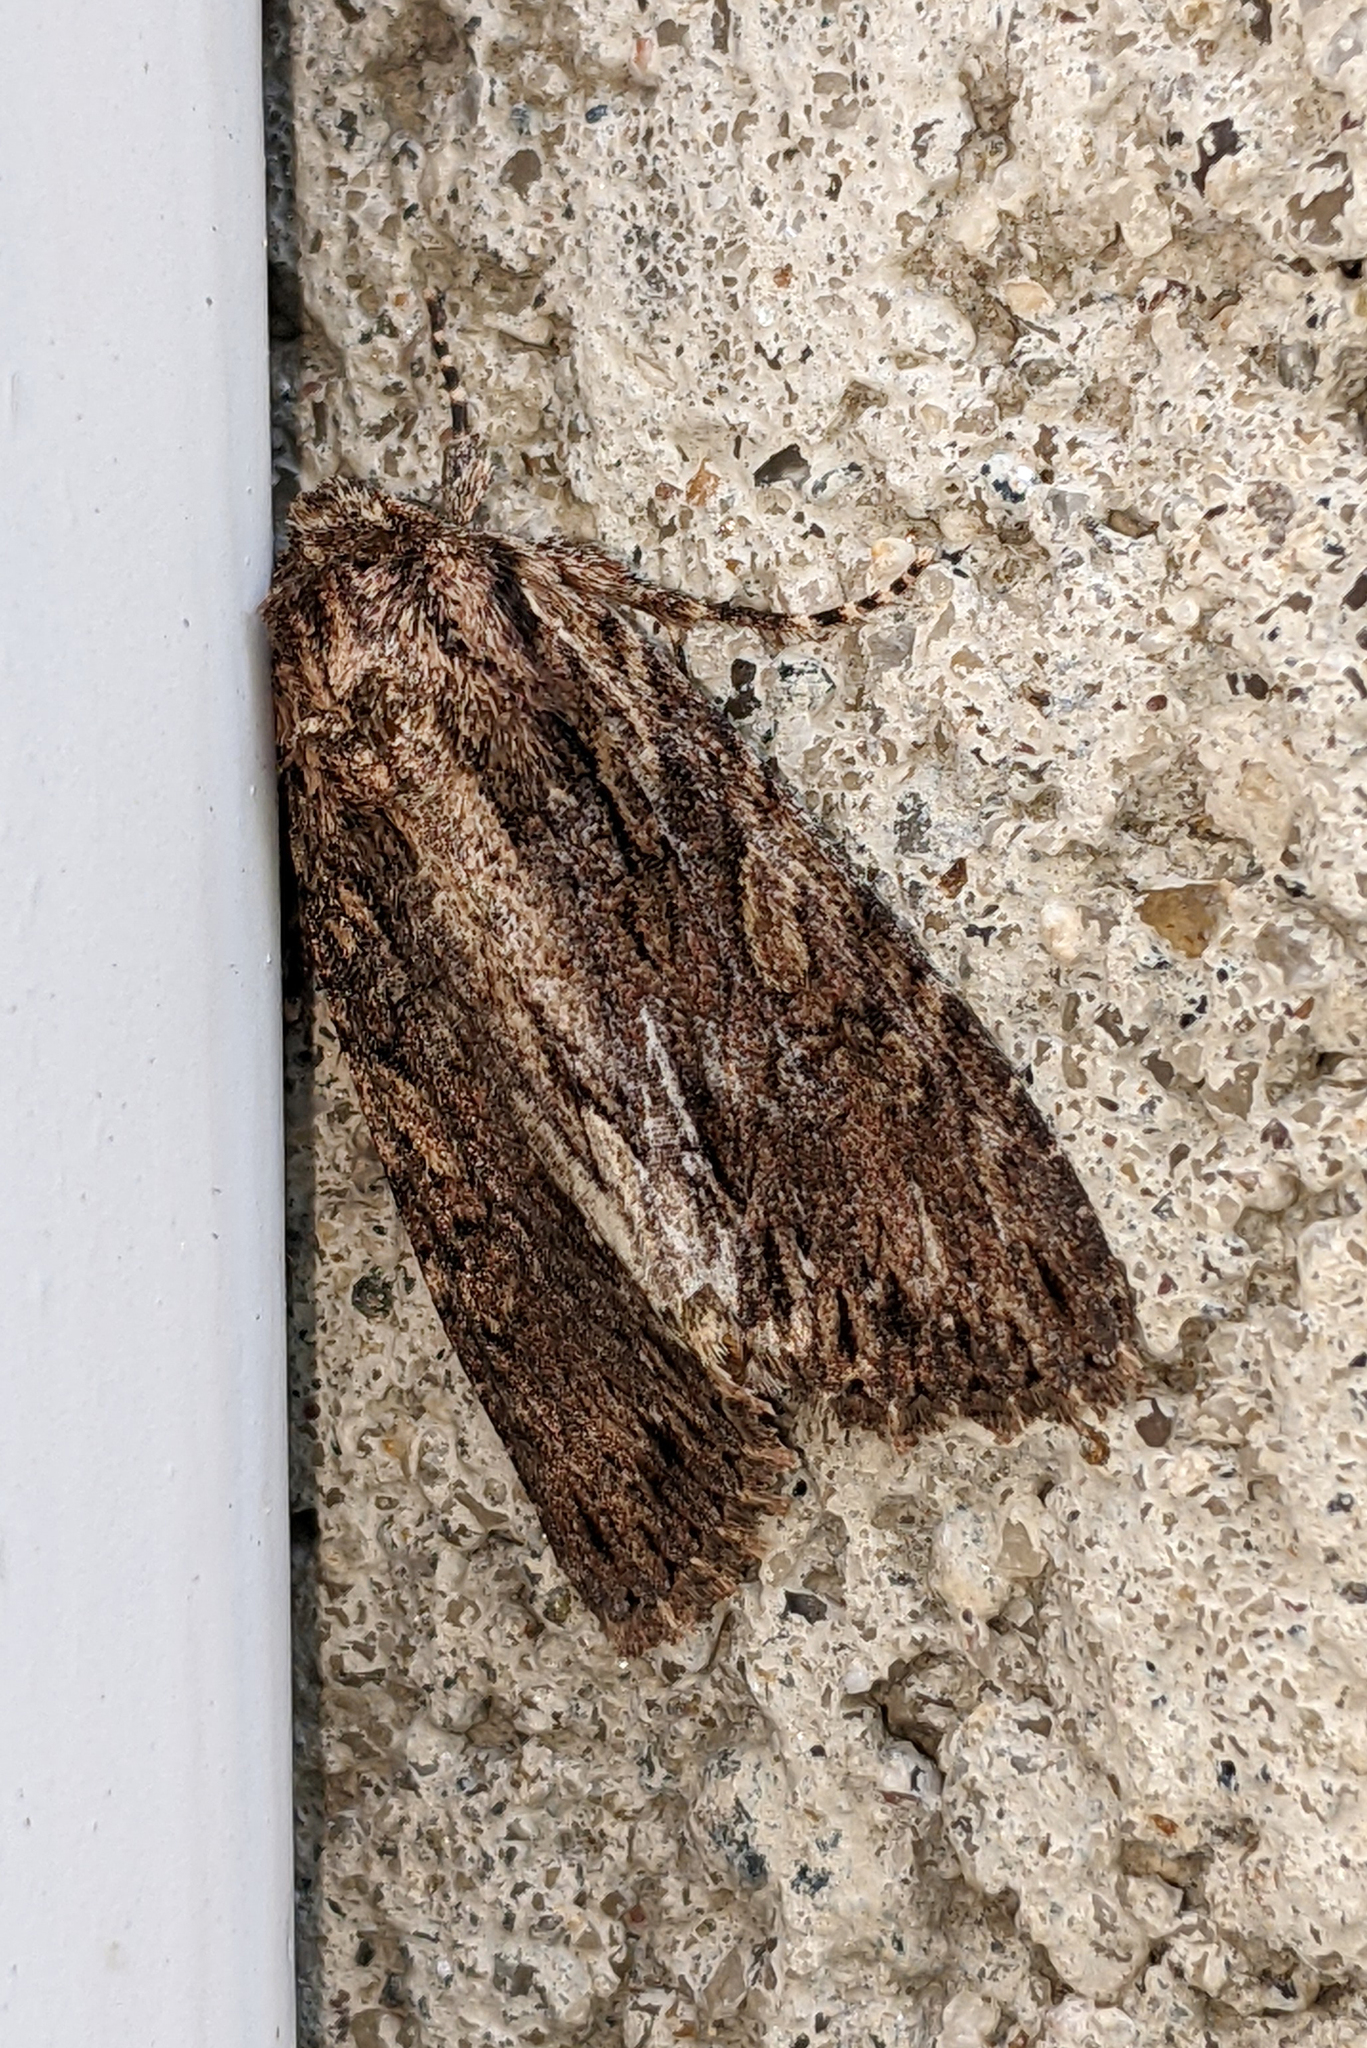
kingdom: Animalia
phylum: Arthropoda
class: Insecta
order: Lepidoptera
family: Noctuidae
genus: Achatia
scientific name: Achatia confusa
